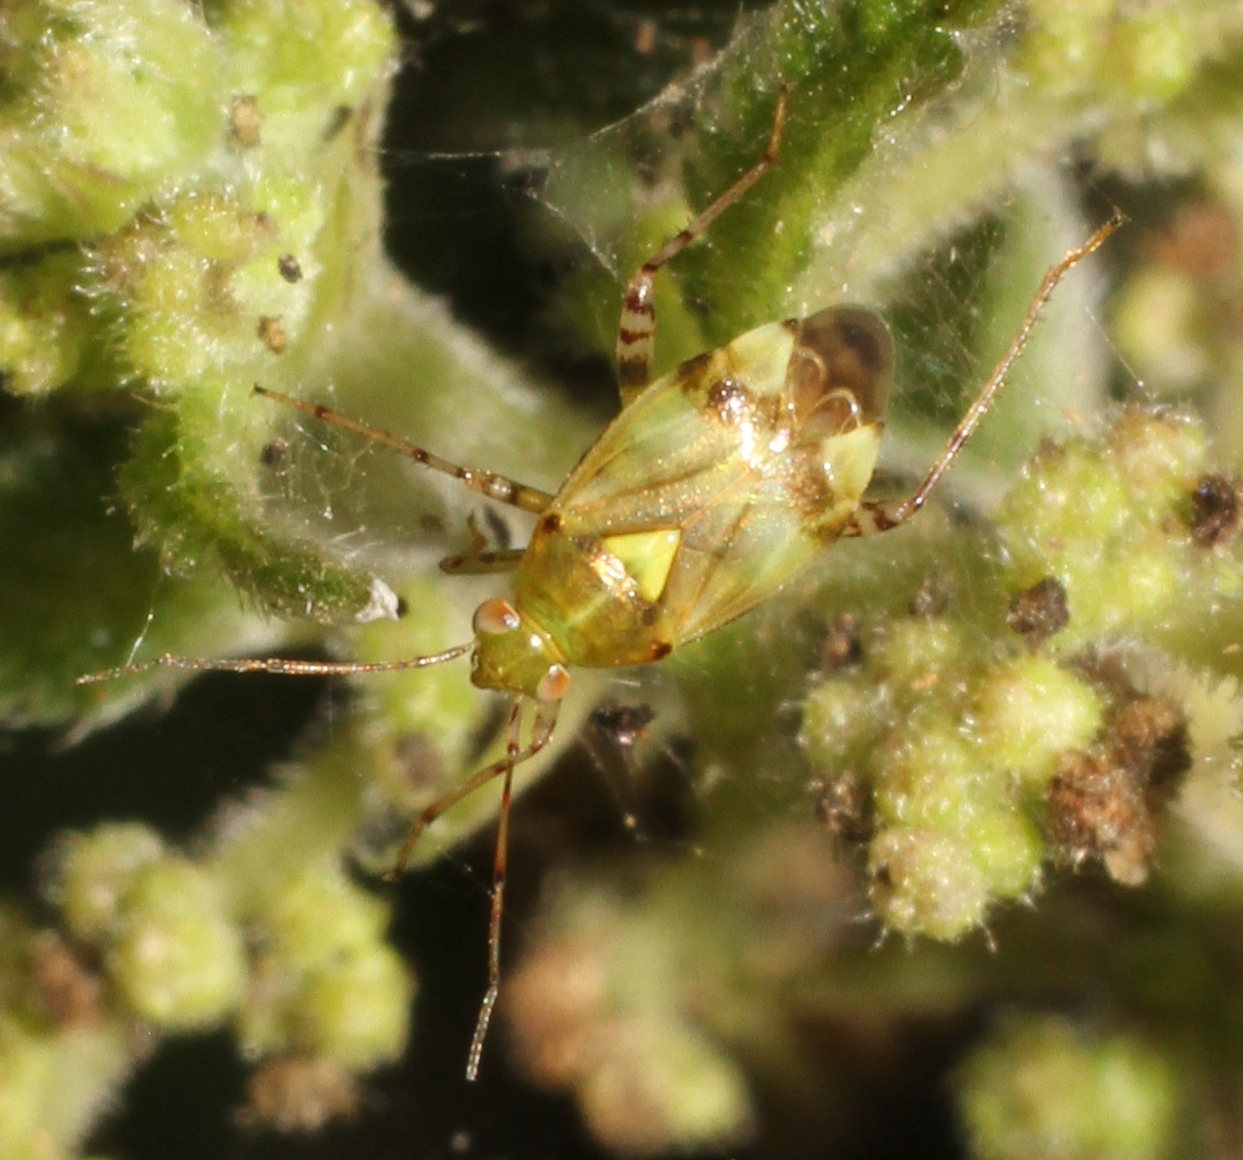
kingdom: Animalia
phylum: Arthropoda
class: Insecta
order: Hemiptera
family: Miridae
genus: Liocoris
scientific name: Liocoris tripustulatus
